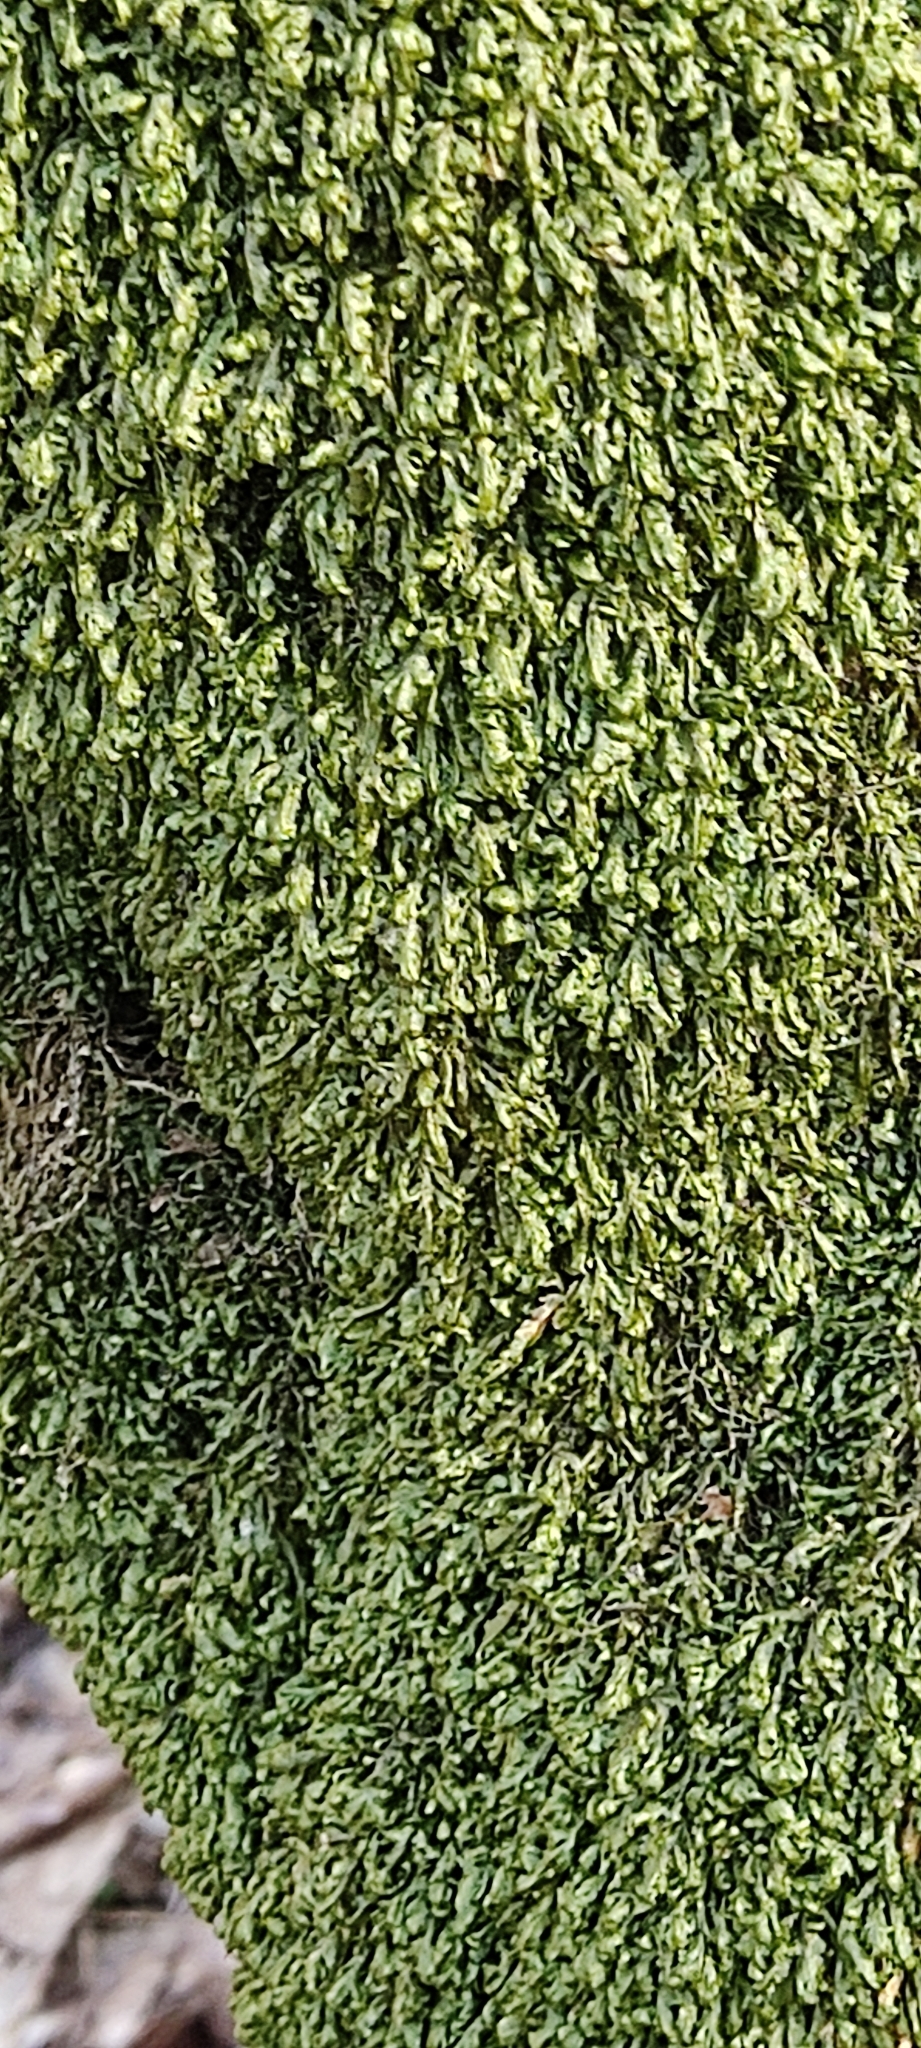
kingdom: Plantae
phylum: Bryophyta
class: Bryopsida
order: Hypnales
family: Neckeraceae
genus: Homalia
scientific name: Homalia trichomanoides
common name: Lime homalia moss
